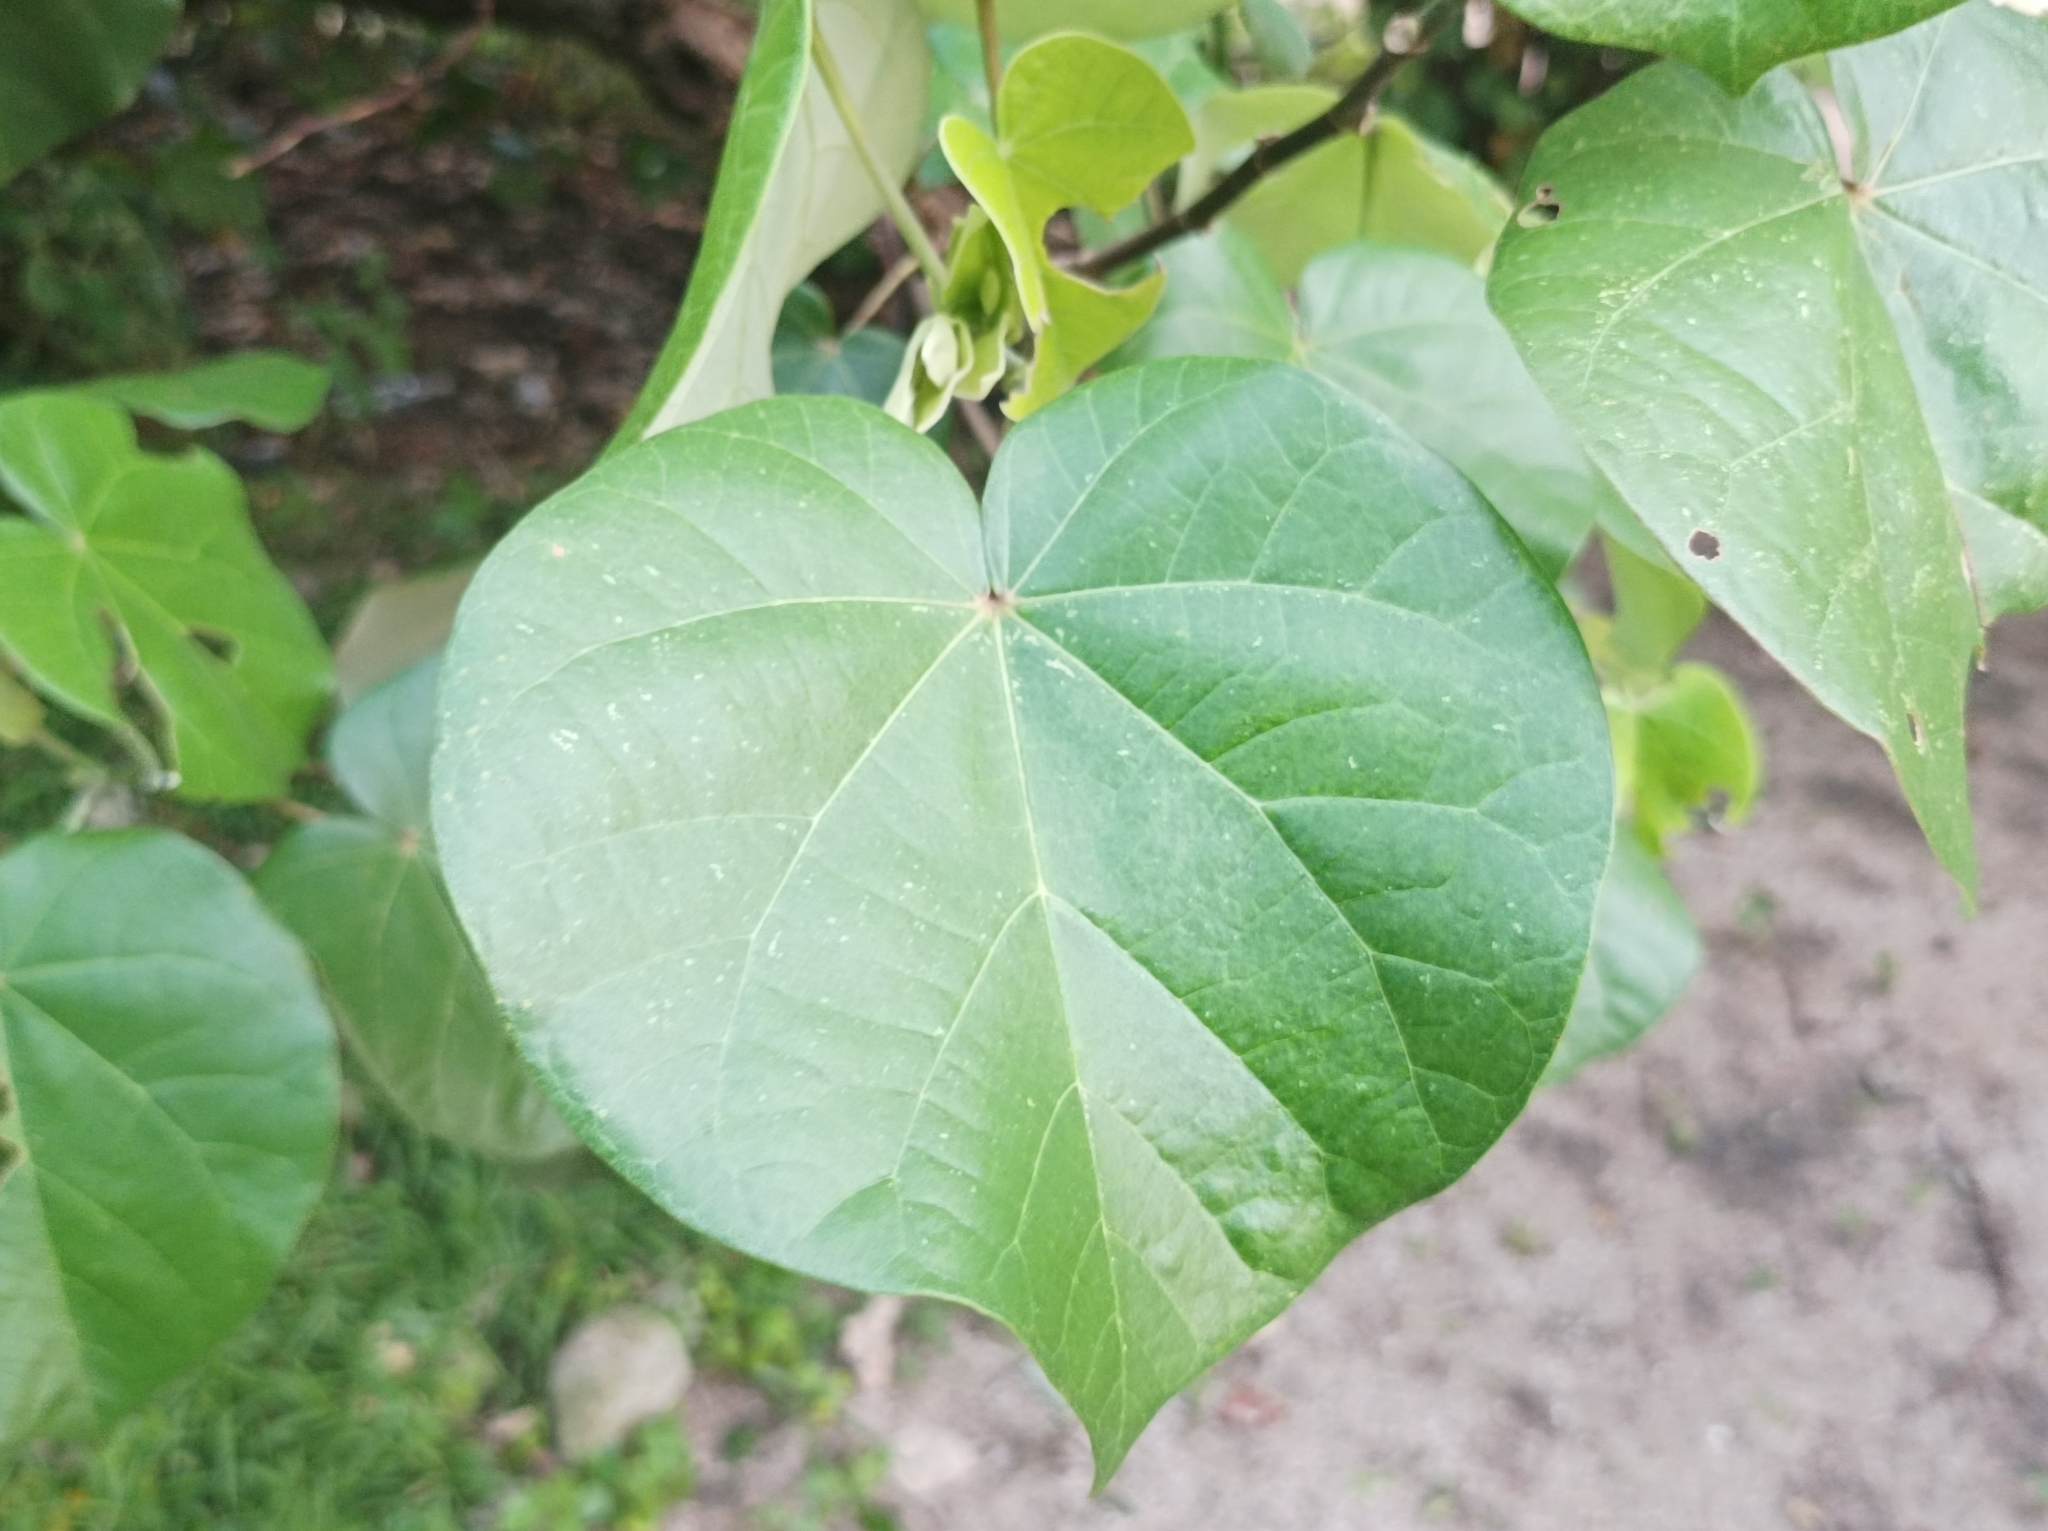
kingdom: Plantae
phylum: Tracheophyta
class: Magnoliopsida
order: Malvales
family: Malvaceae
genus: Talipariti
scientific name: Talipariti tiliaceum
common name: Sea hibiscus
